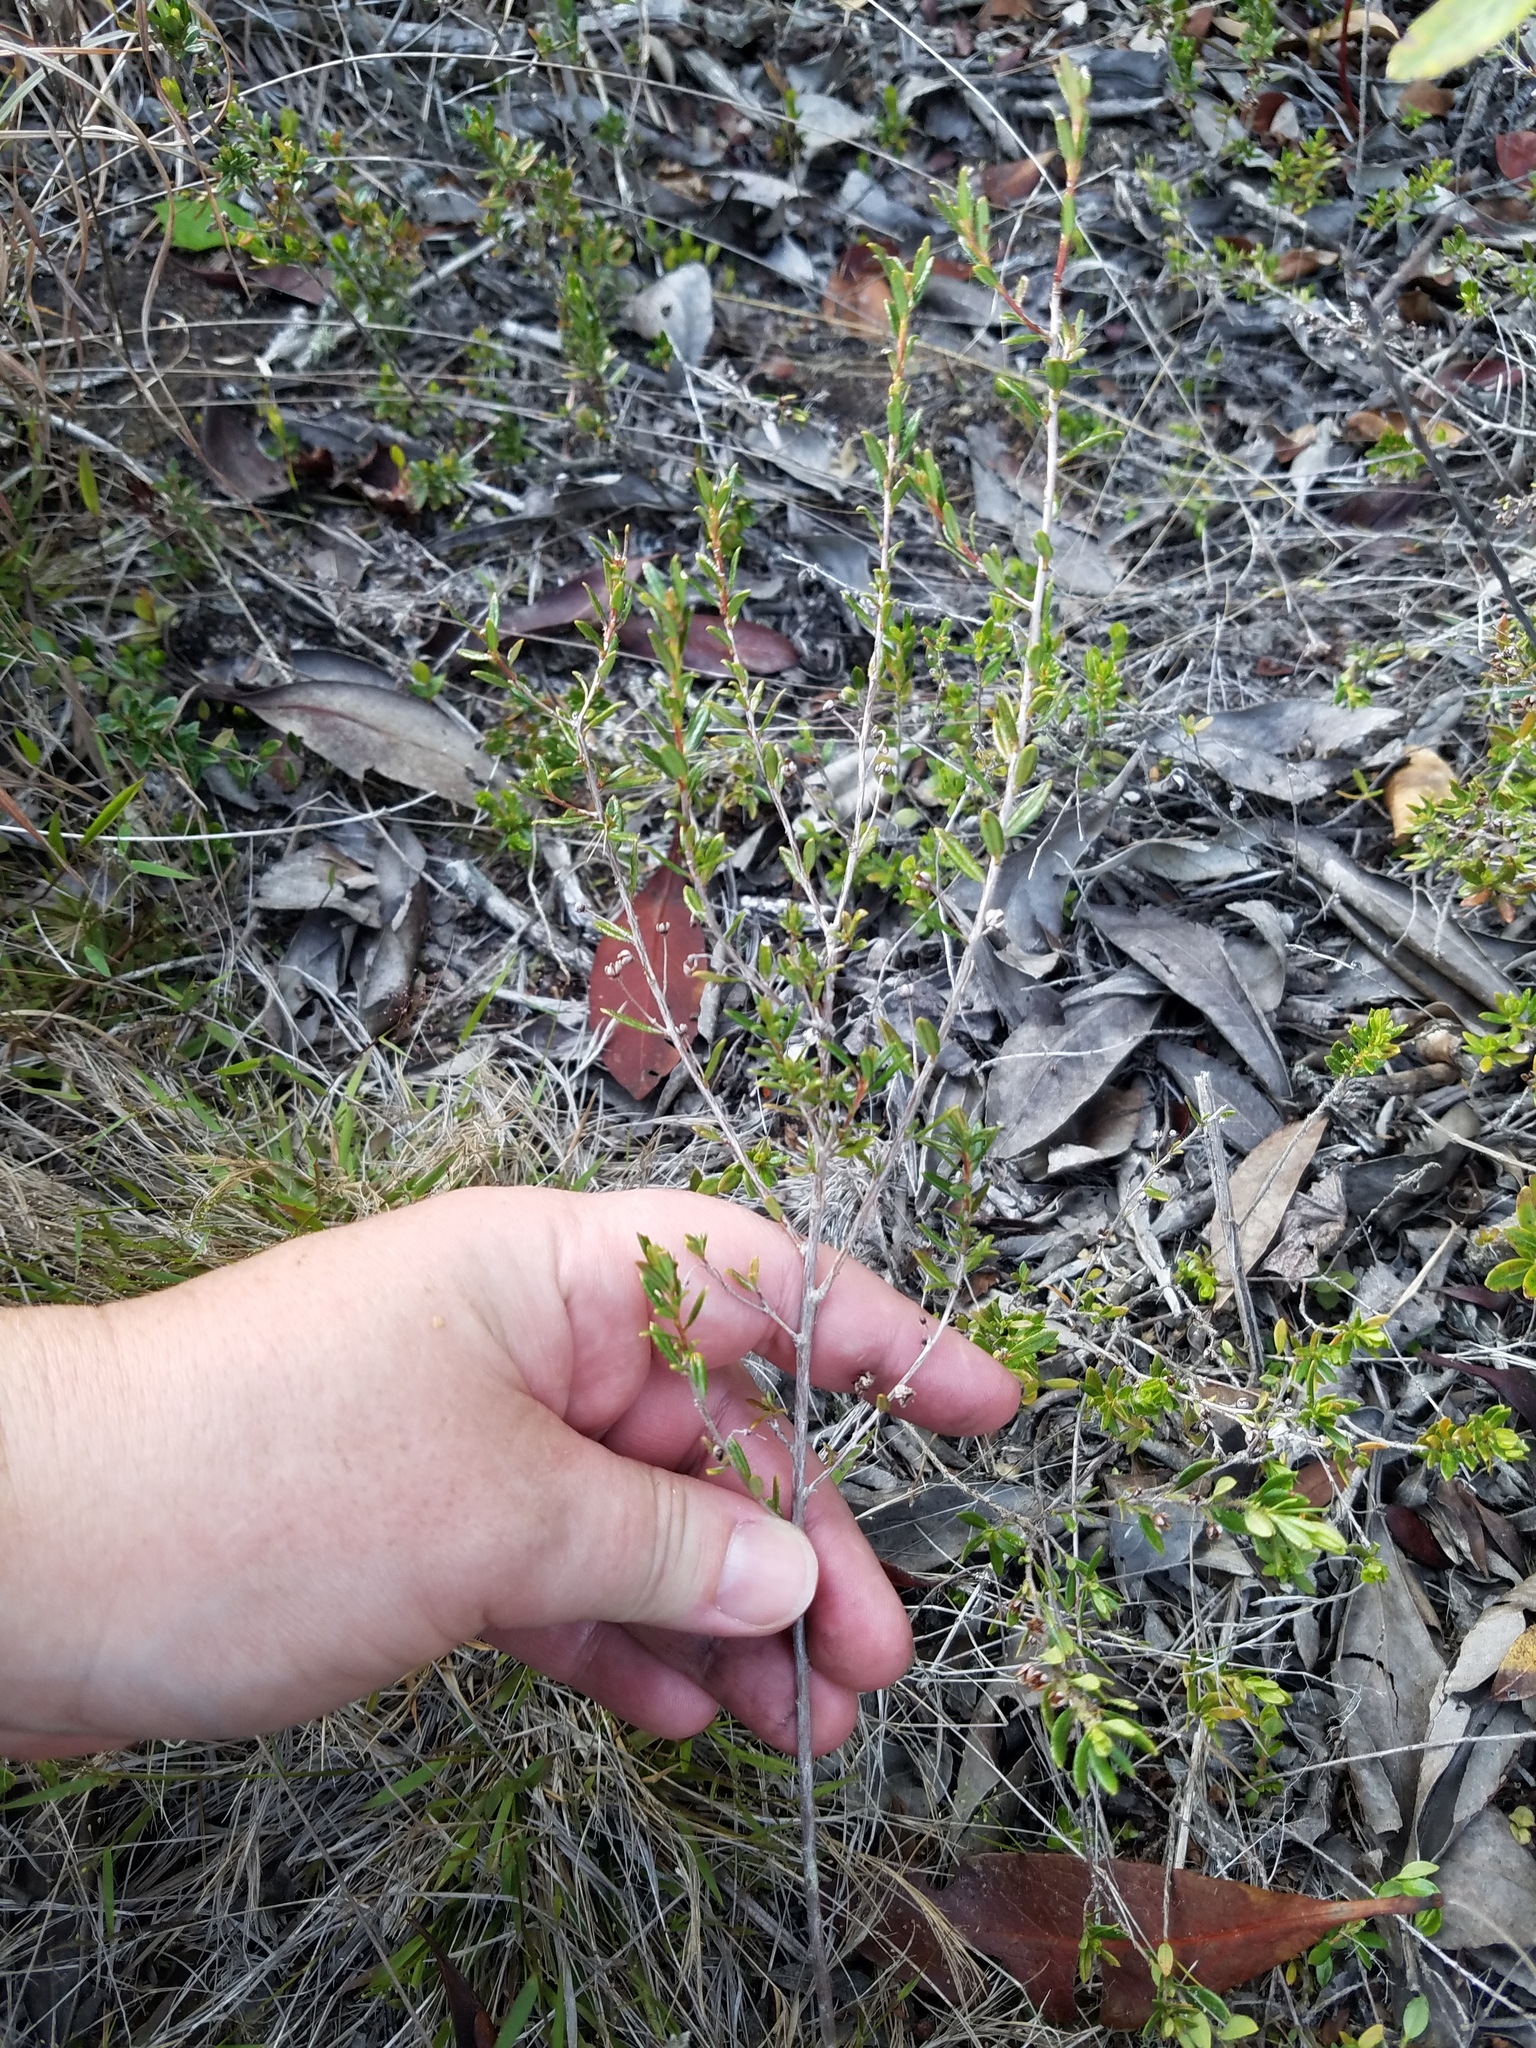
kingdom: Plantae
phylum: Tracheophyta
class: Magnoliopsida
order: Ericales
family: Ericaceae
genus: Kalmia
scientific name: Kalmia hirsuta
